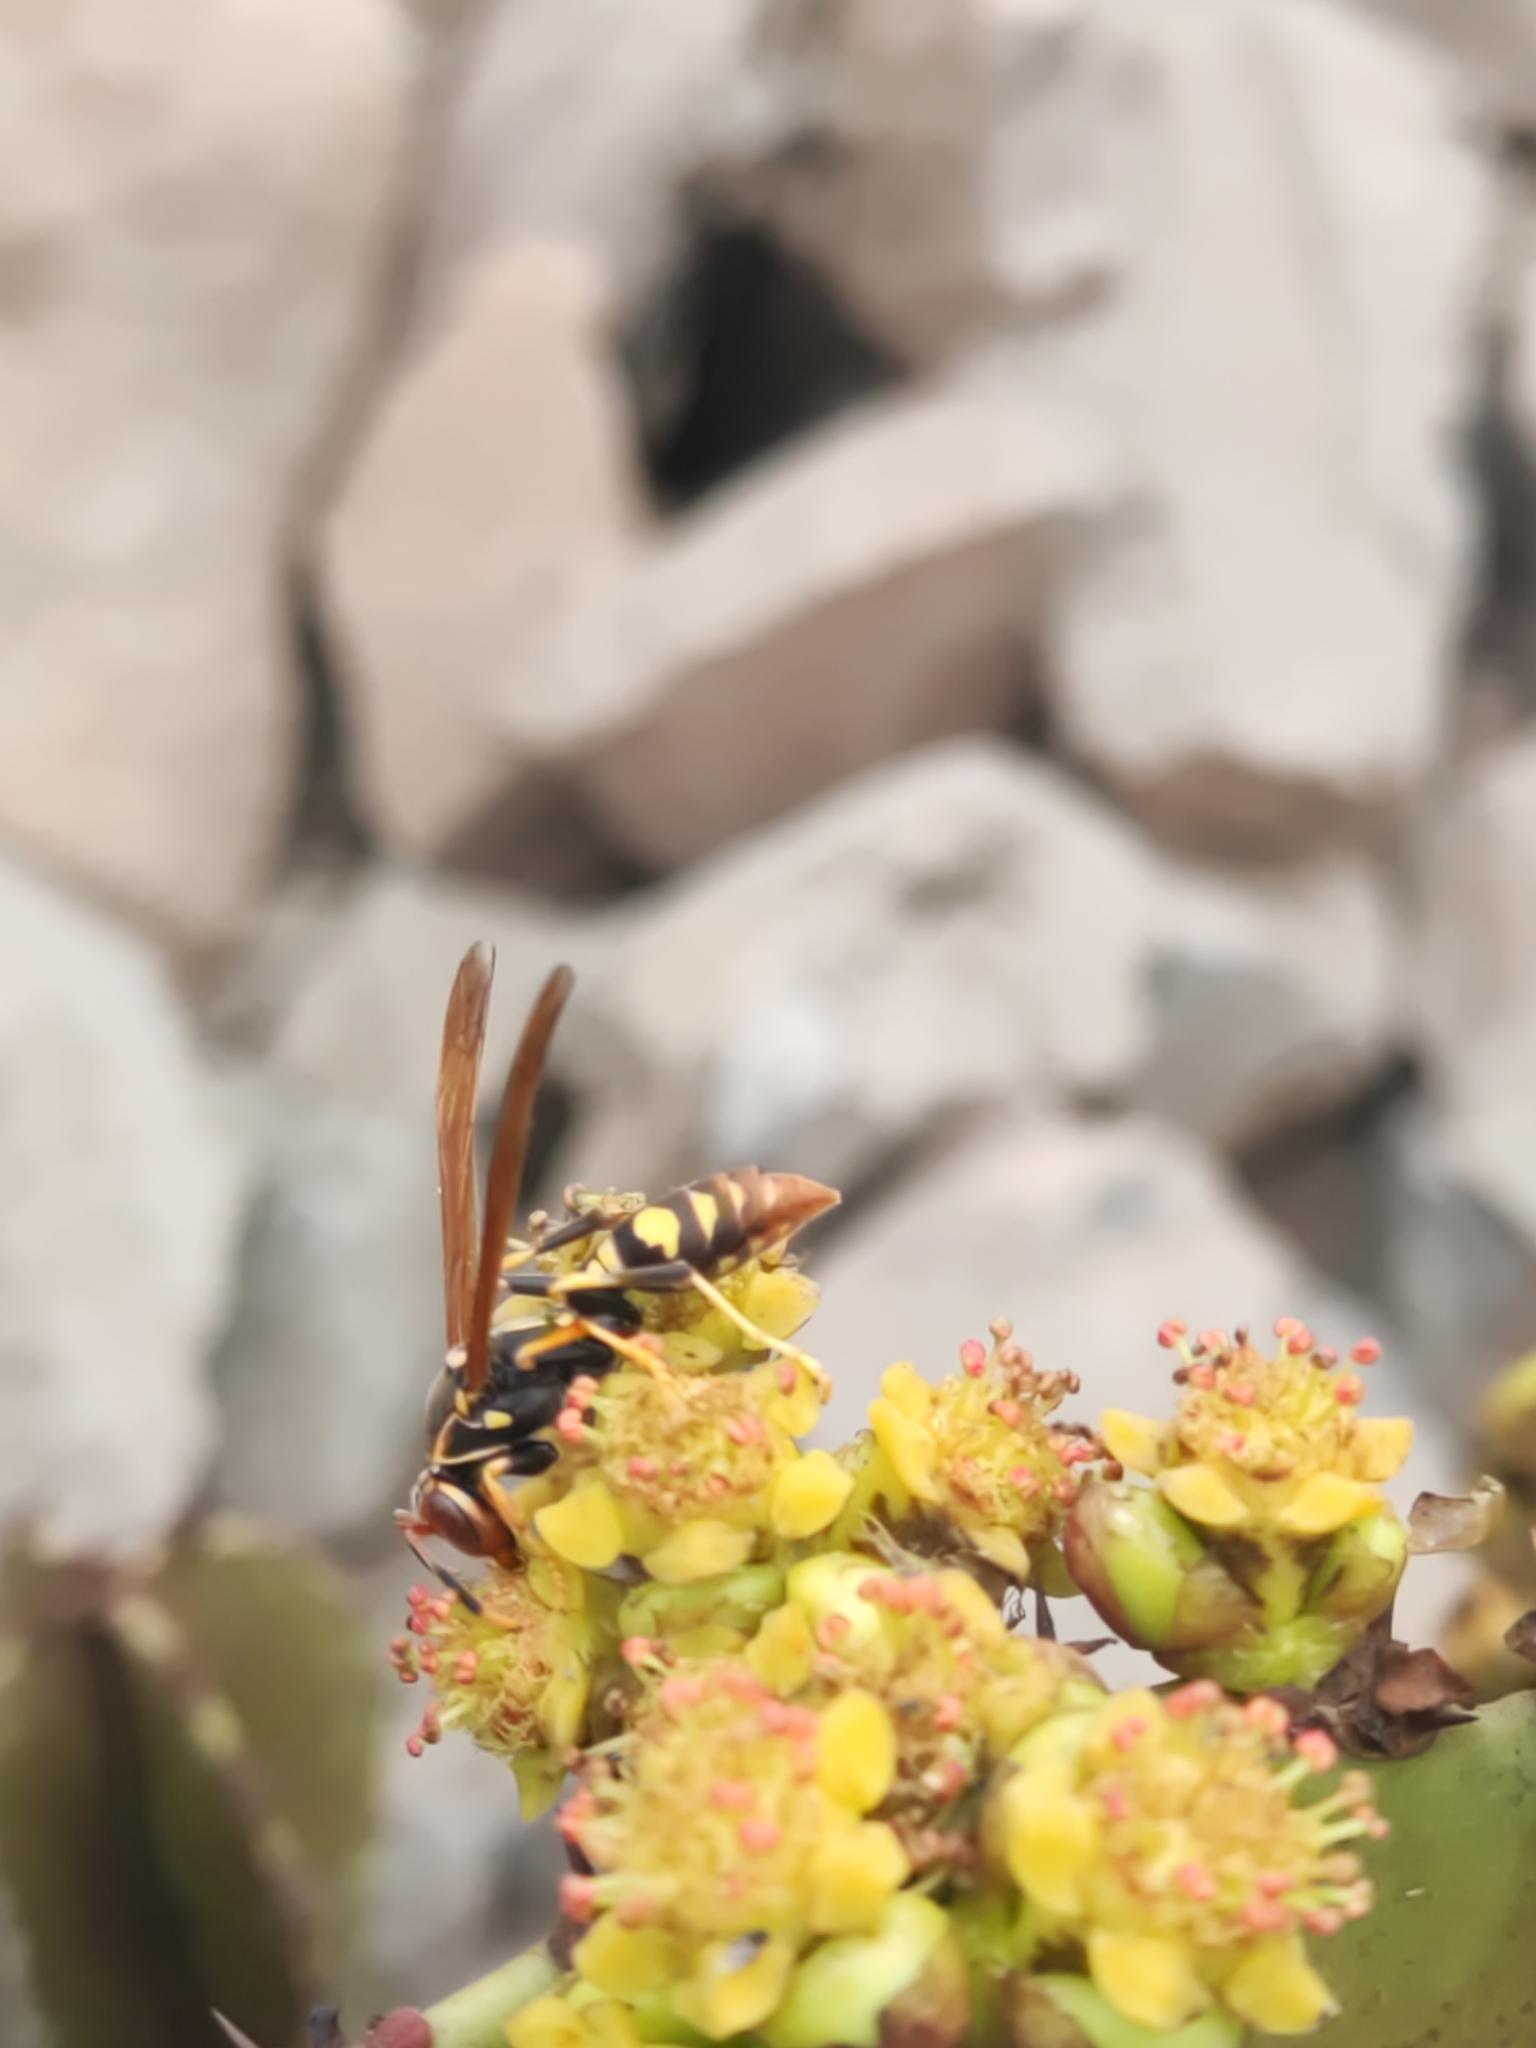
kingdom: Animalia
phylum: Arthropoda
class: Insecta
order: Hymenoptera
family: Eumenidae
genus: Polistes
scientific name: Polistes weyrauchorum
